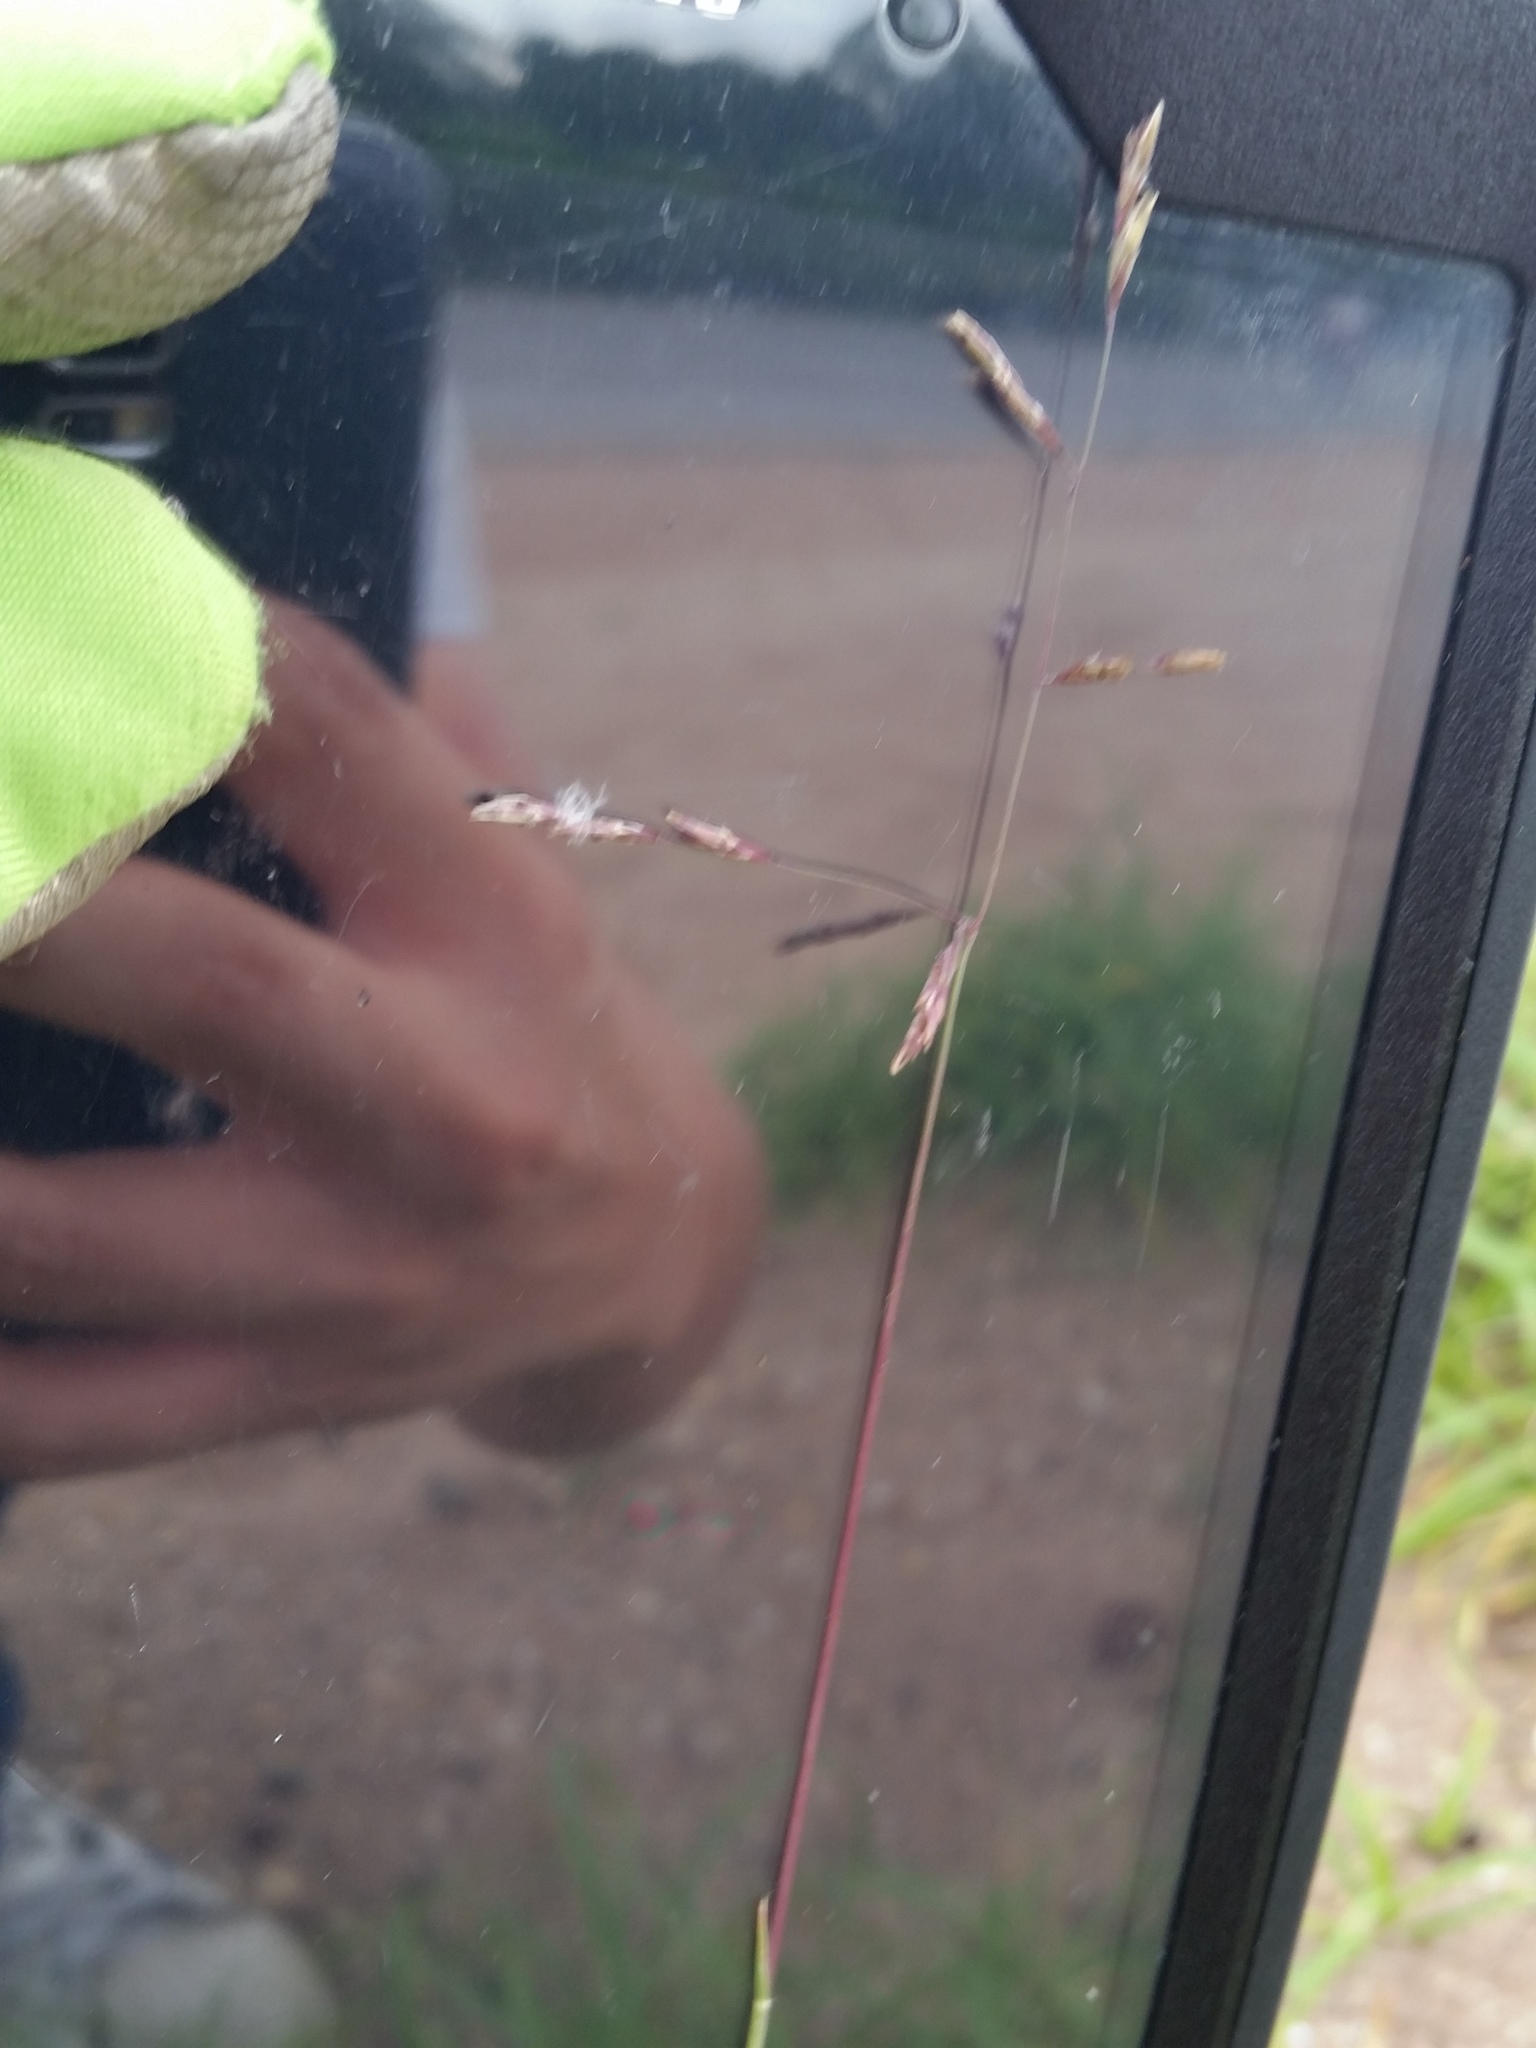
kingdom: Plantae
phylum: Tracheophyta
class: Liliopsida
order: Poales
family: Poaceae
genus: Triplasis
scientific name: Triplasis purpurea
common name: Purple sand grass
